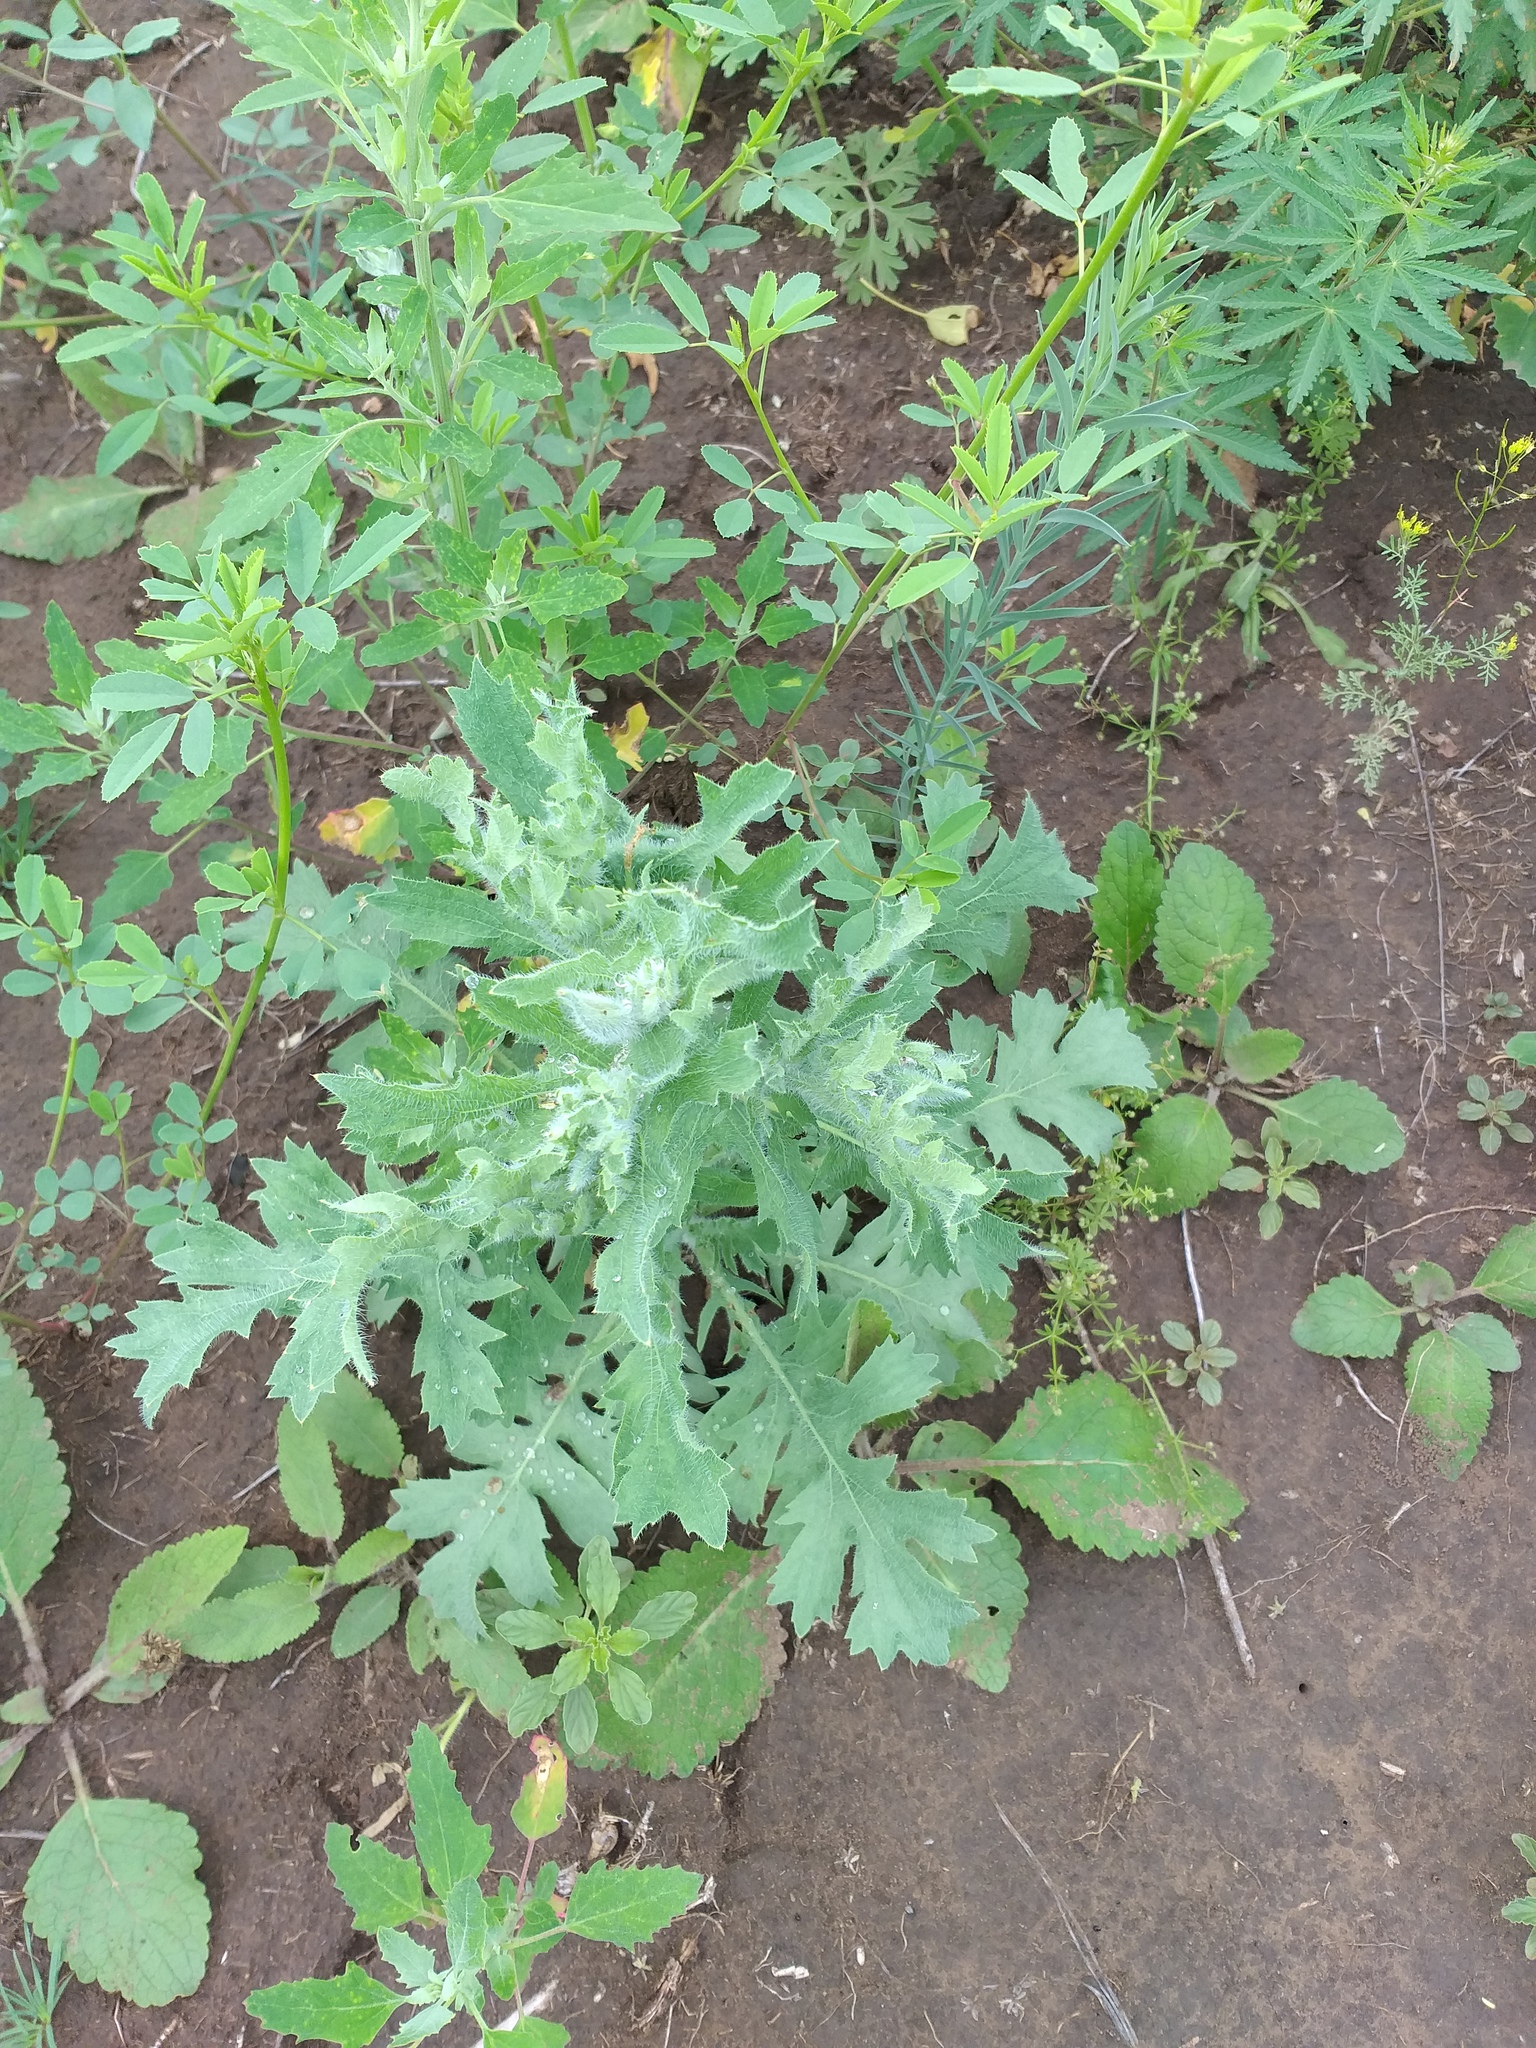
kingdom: Plantae
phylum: Tracheophyta
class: Magnoliopsida
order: Ranunculales
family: Papaveraceae
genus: Glaucium
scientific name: Glaucium corniculatum
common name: Red horned-poppy
